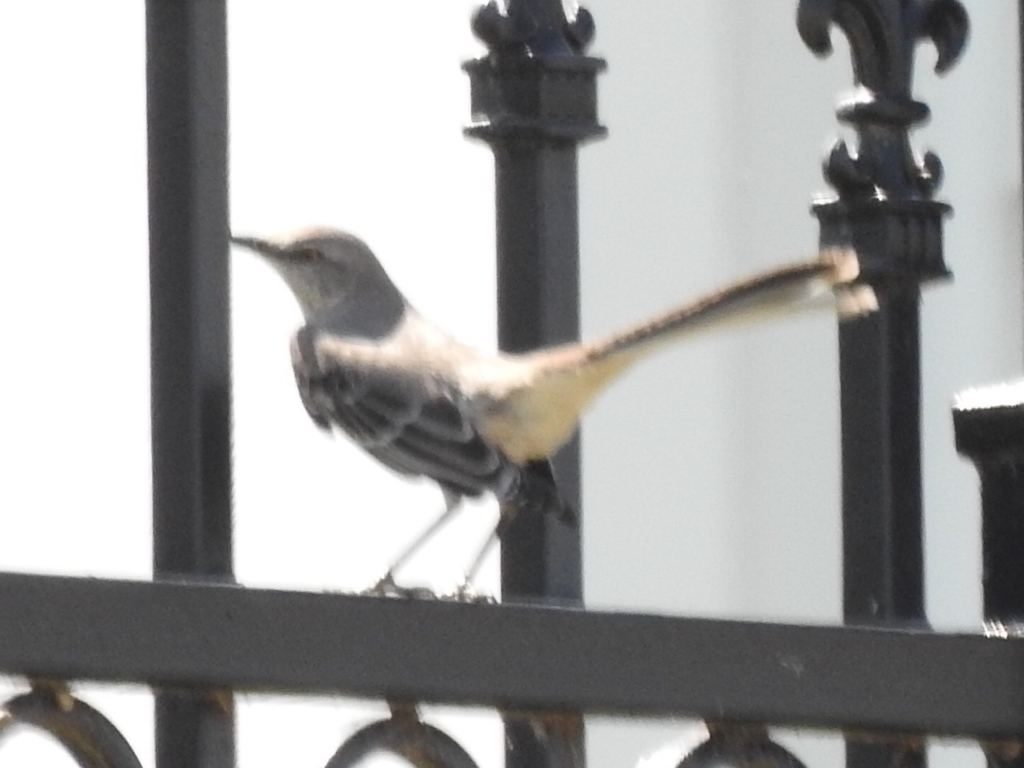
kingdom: Animalia
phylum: Chordata
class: Aves
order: Passeriformes
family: Mimidae
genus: Mimus
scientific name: Mimus polyglottos
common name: Northern mockingbird
